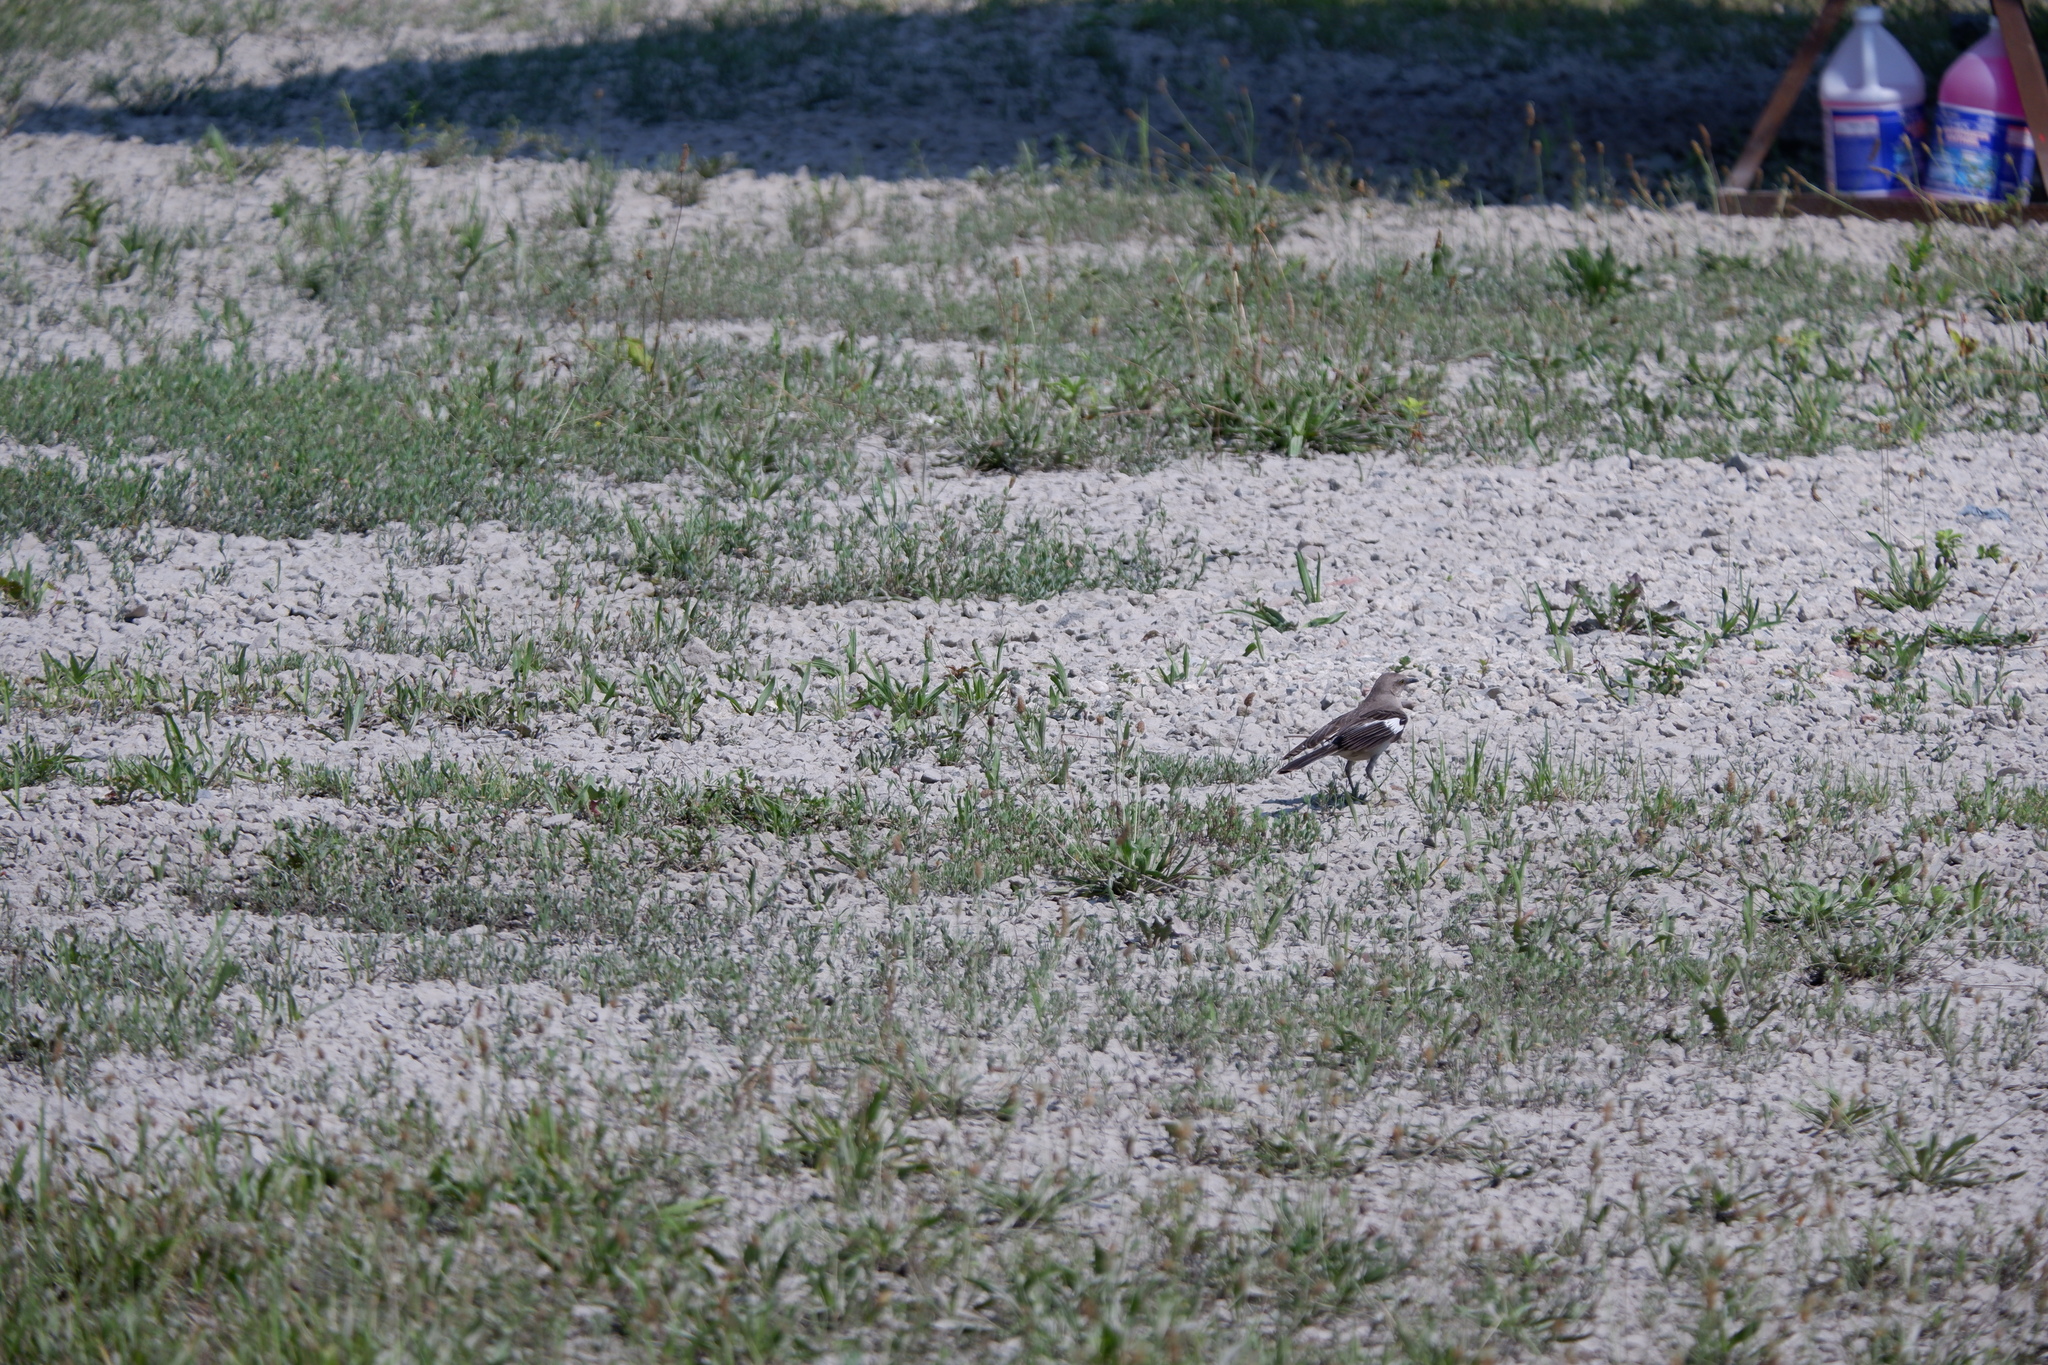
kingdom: Animalia
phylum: Chordata
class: Aves
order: Passeriformes
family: Mimidae
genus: Mimus
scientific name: Mimus polyglottos
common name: Northern mockingbird
